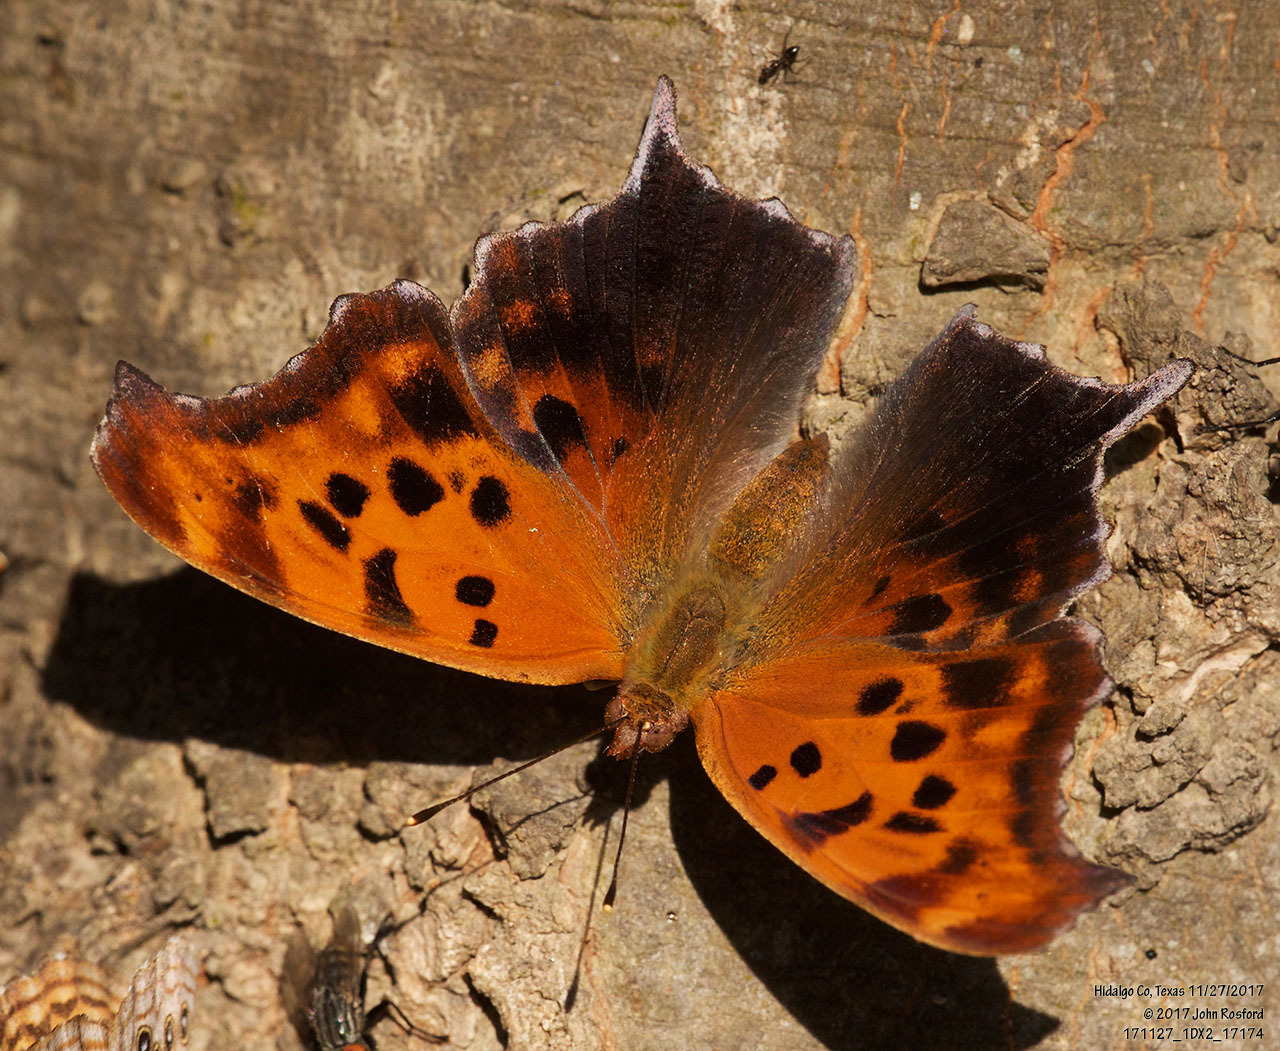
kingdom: Animalia
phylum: Arthropoda
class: Insecta
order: Lepidoptera
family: Nymphalidae
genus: Polygonia
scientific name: Polygonia interrogationis
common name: Question mark
